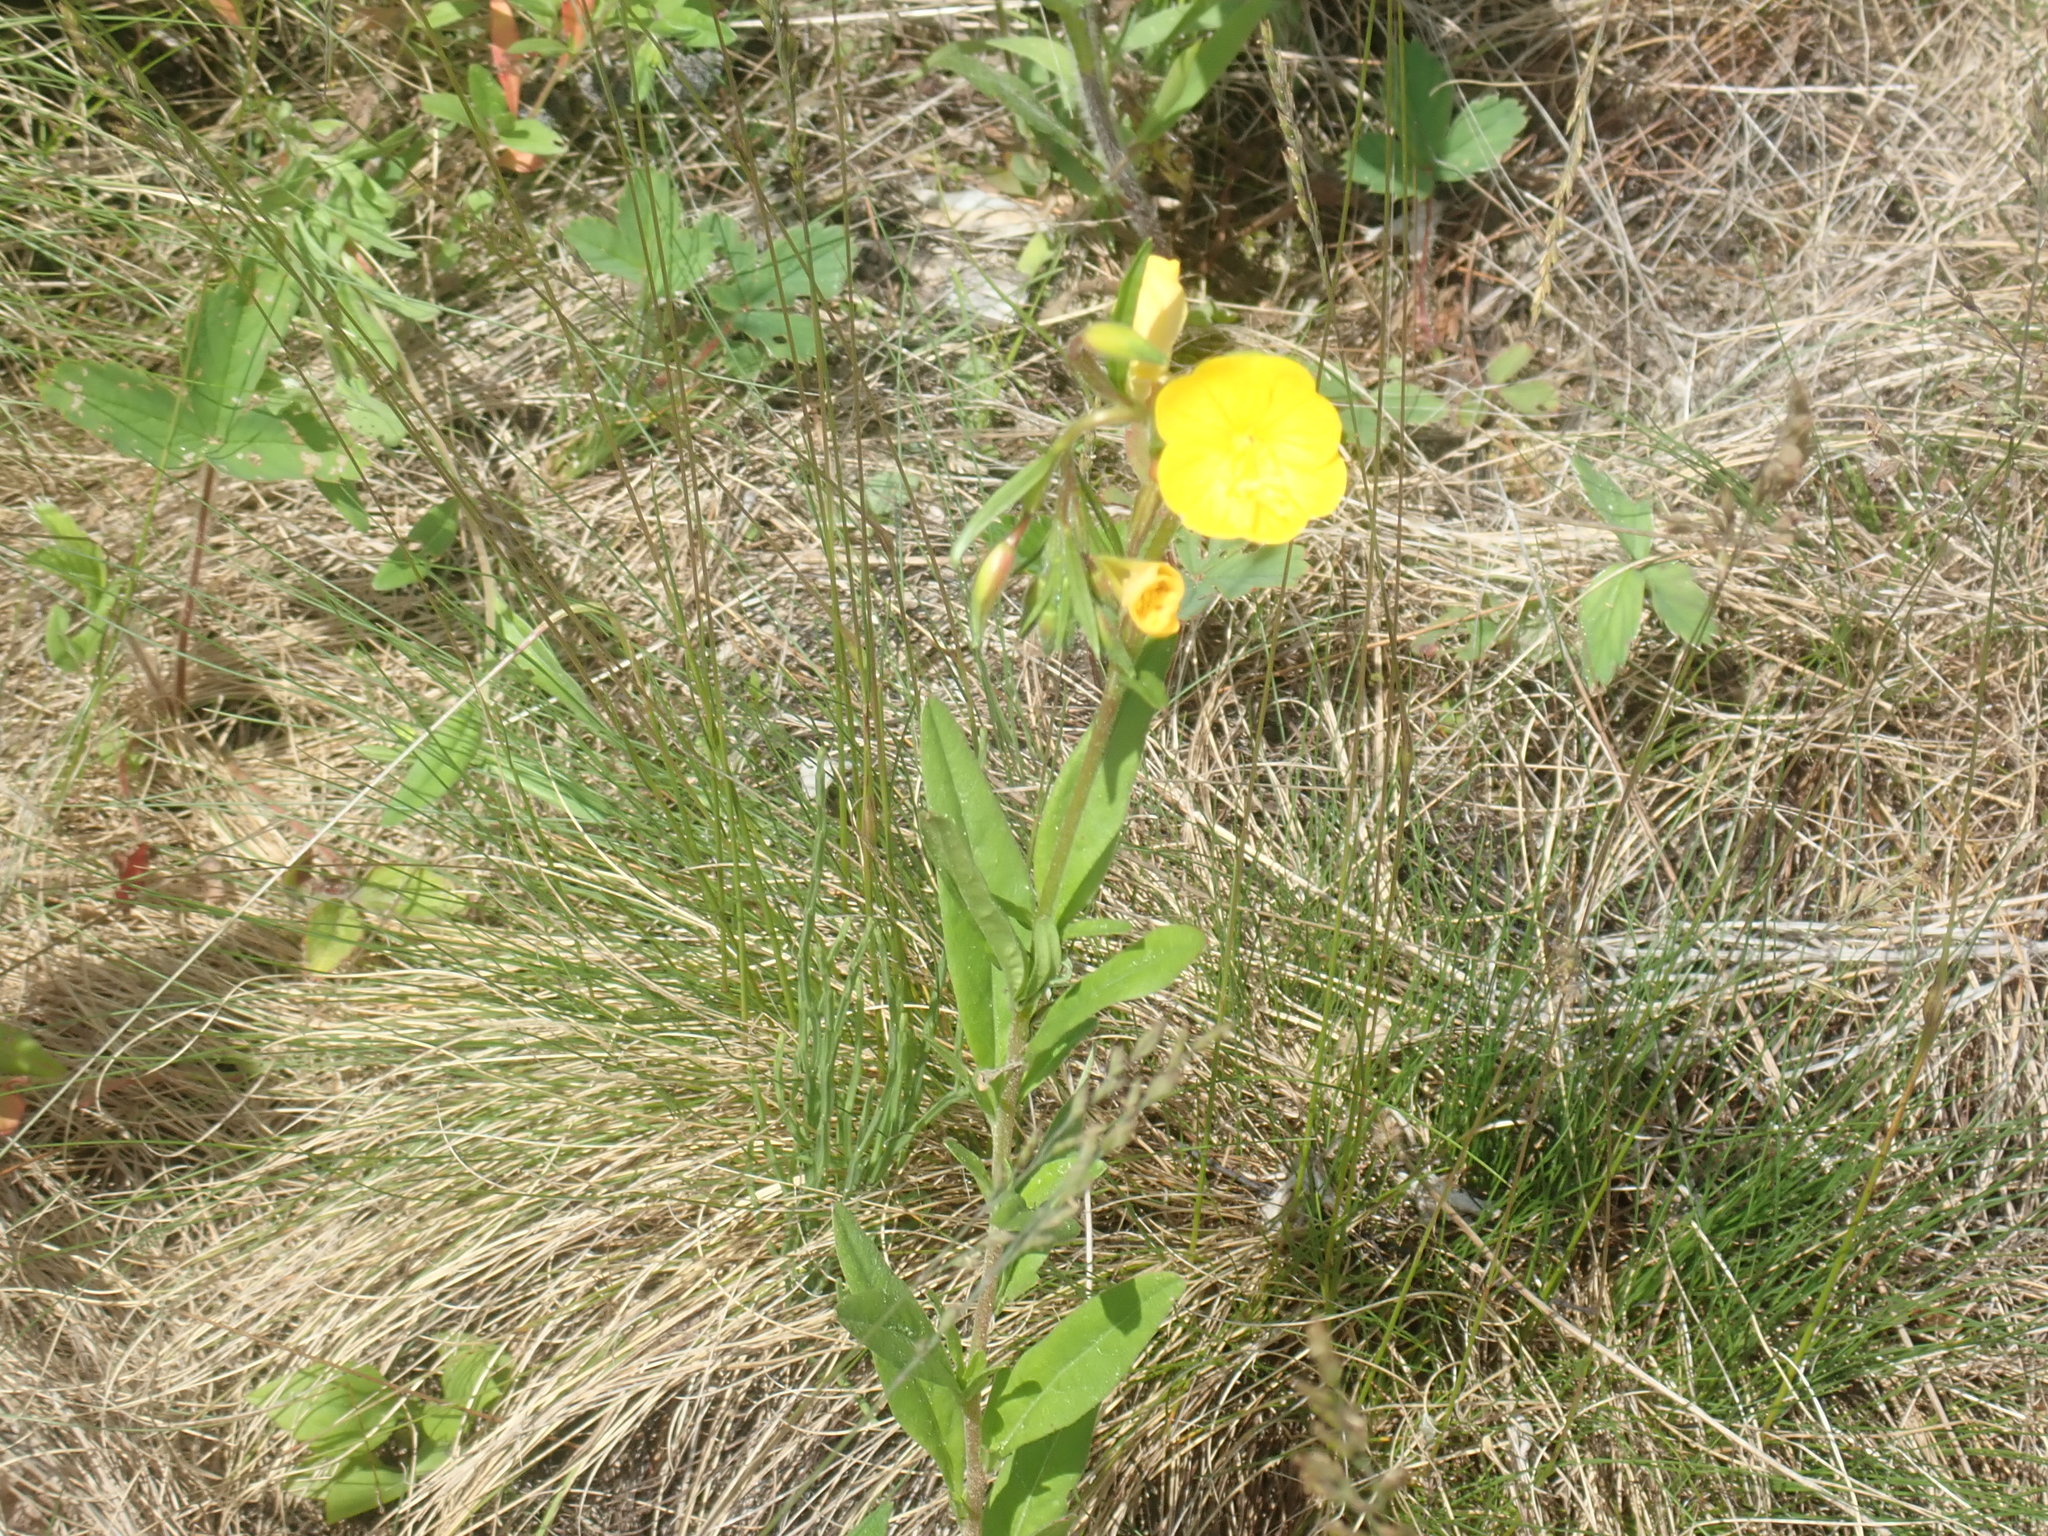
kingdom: Plantae
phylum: Tracheophyta
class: Magnoliopsida
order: Myrtales
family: Onagraceae
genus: Oenothera
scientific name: Oenothera perennis
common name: Small sundrops
